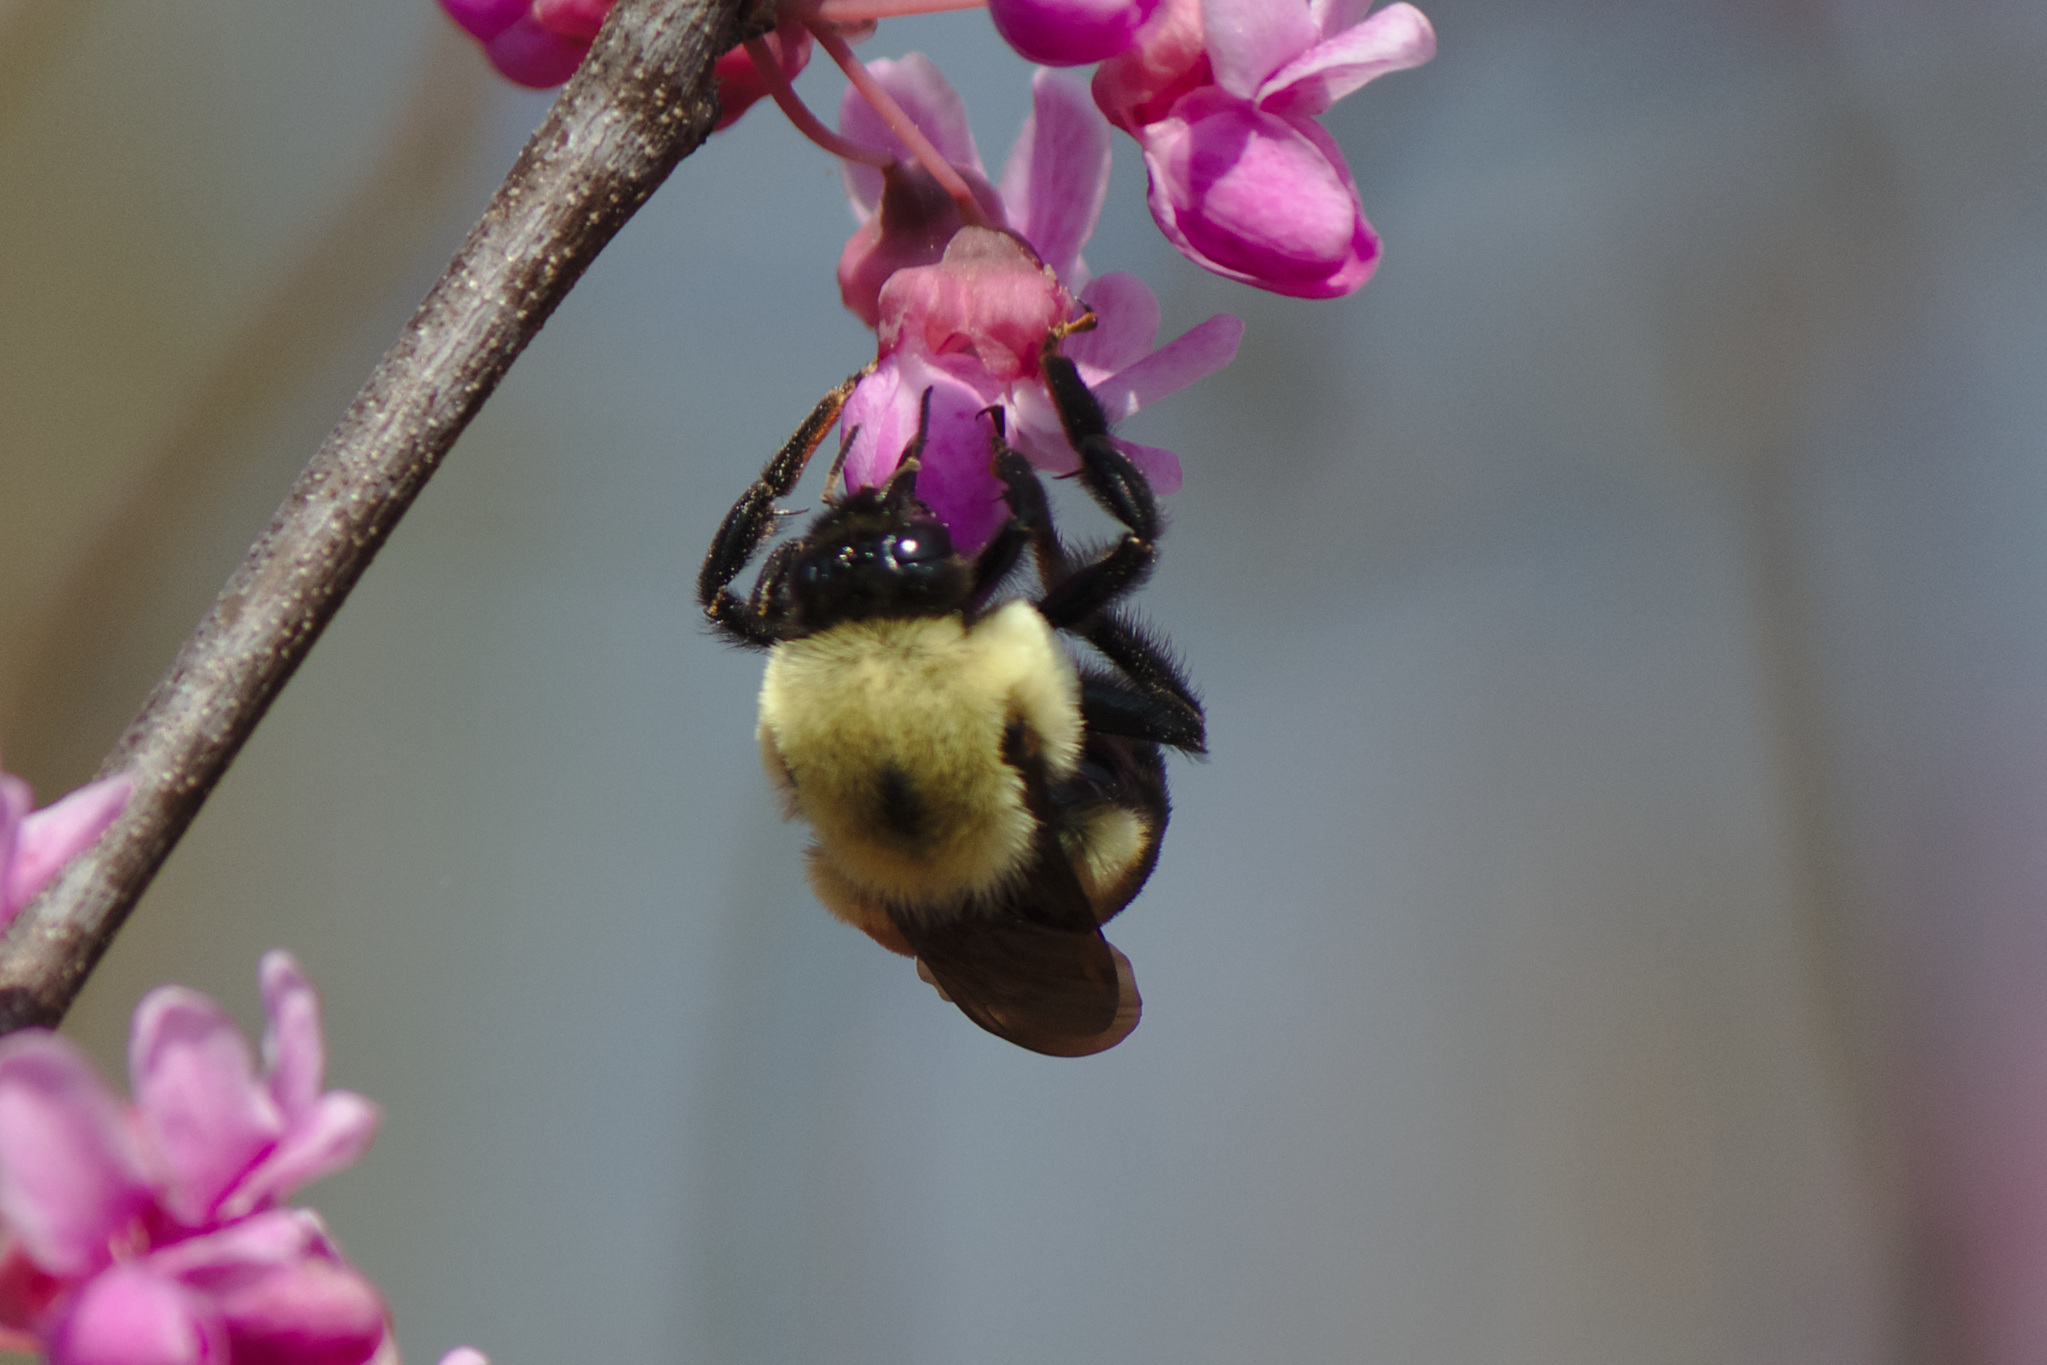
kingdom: Animalia
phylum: Arthropoda
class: Insecta
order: Hymenoptera
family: Apidae
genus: Bombus
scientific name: Bombus griseocollis
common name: Brown-belted bumble bee
